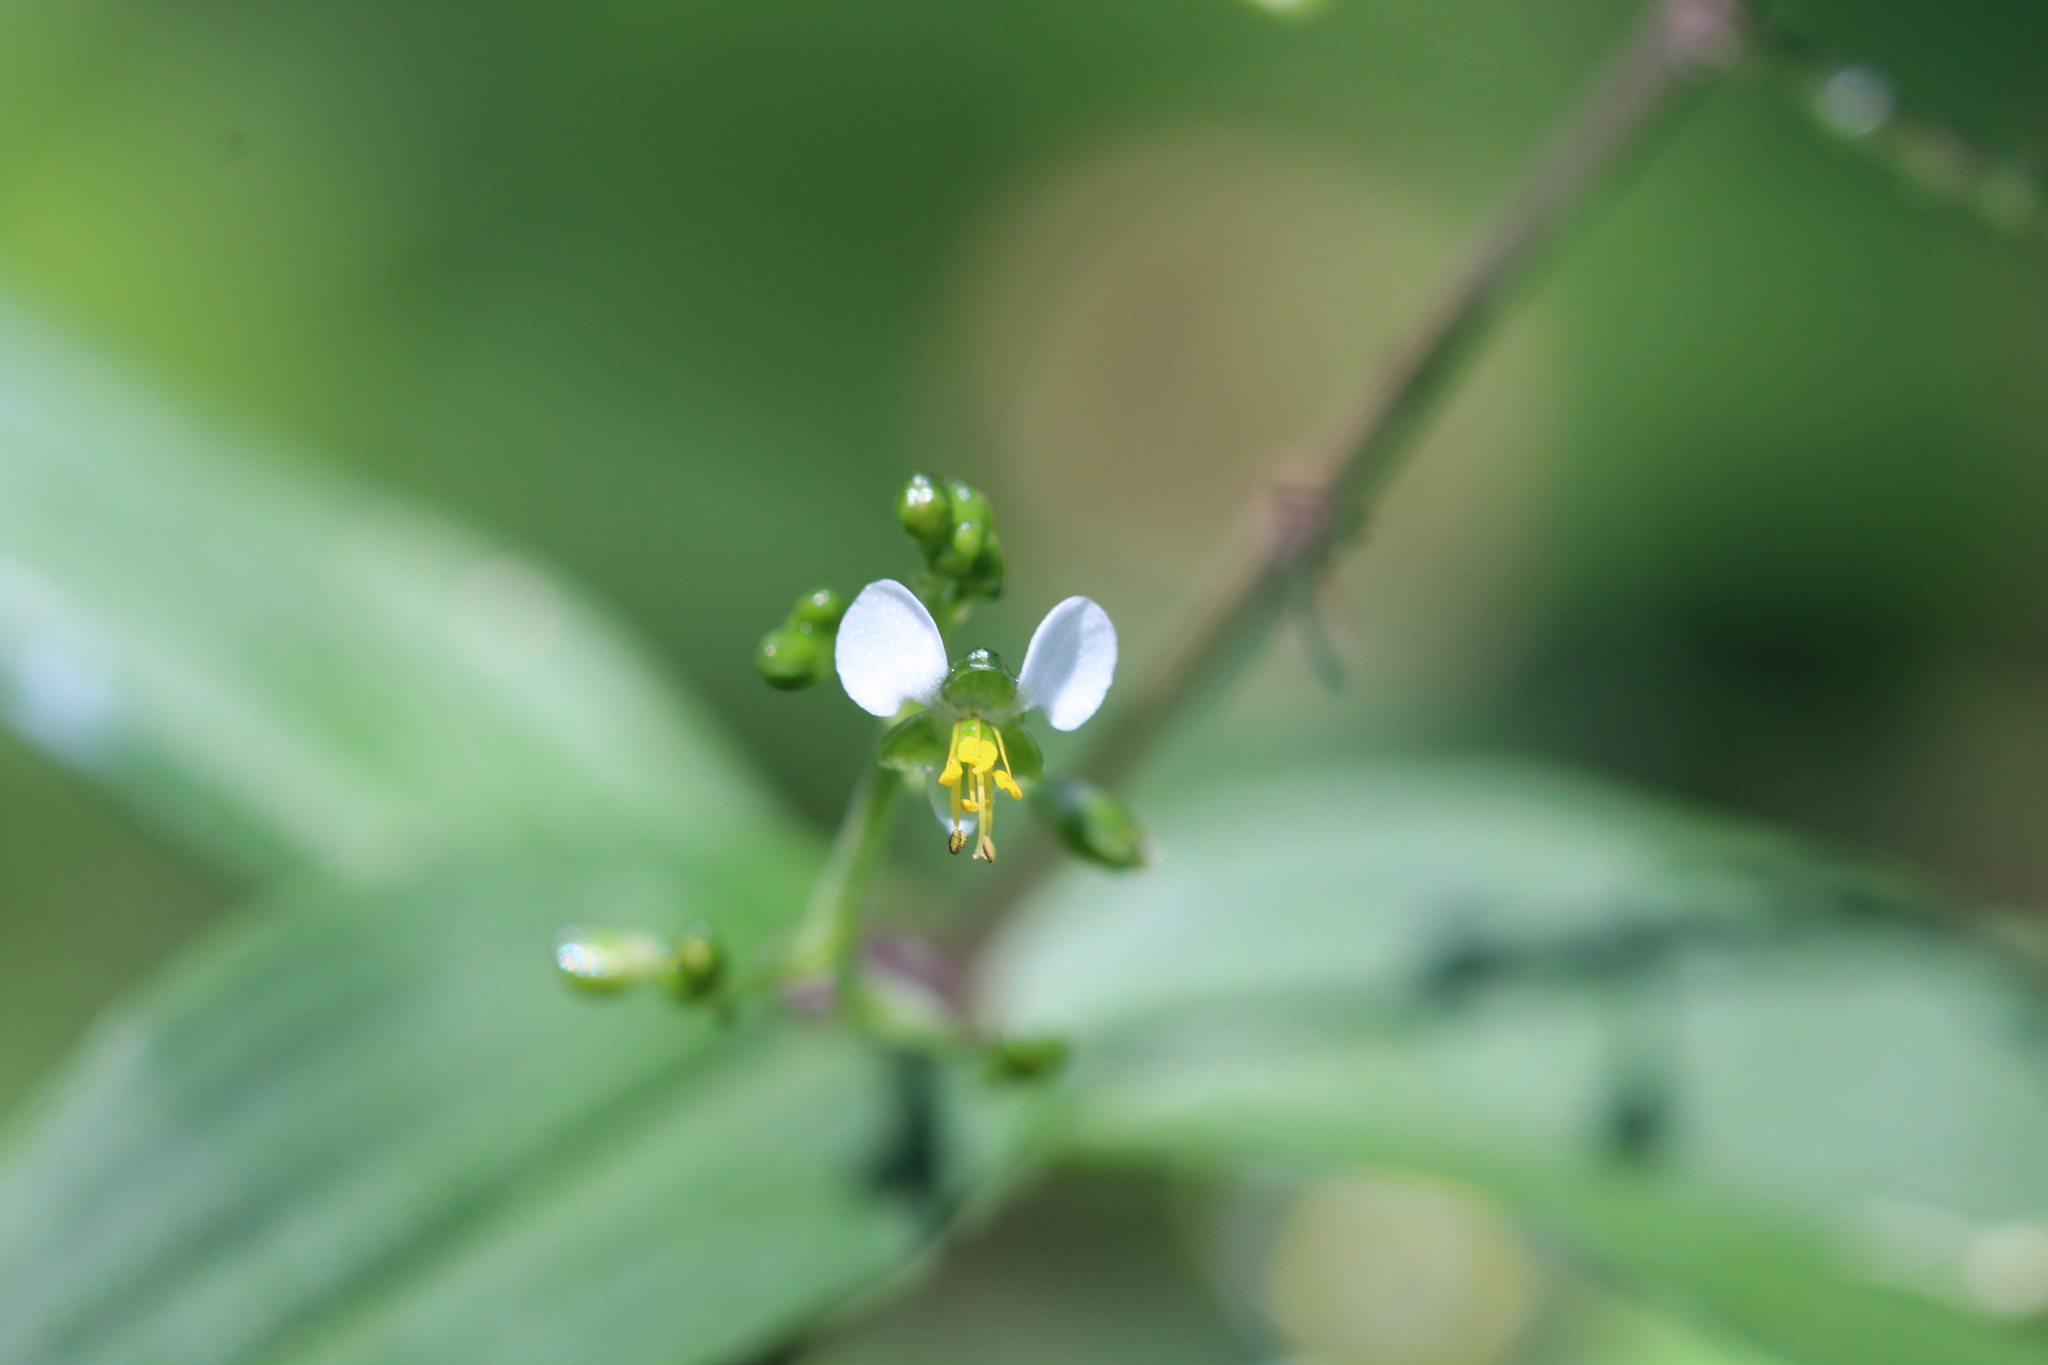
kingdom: Plantae
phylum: Tracheophyta
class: Liliopsida
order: Commelinales
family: Commelinaceae
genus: Aneilema
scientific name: Aneilema umbrosum
